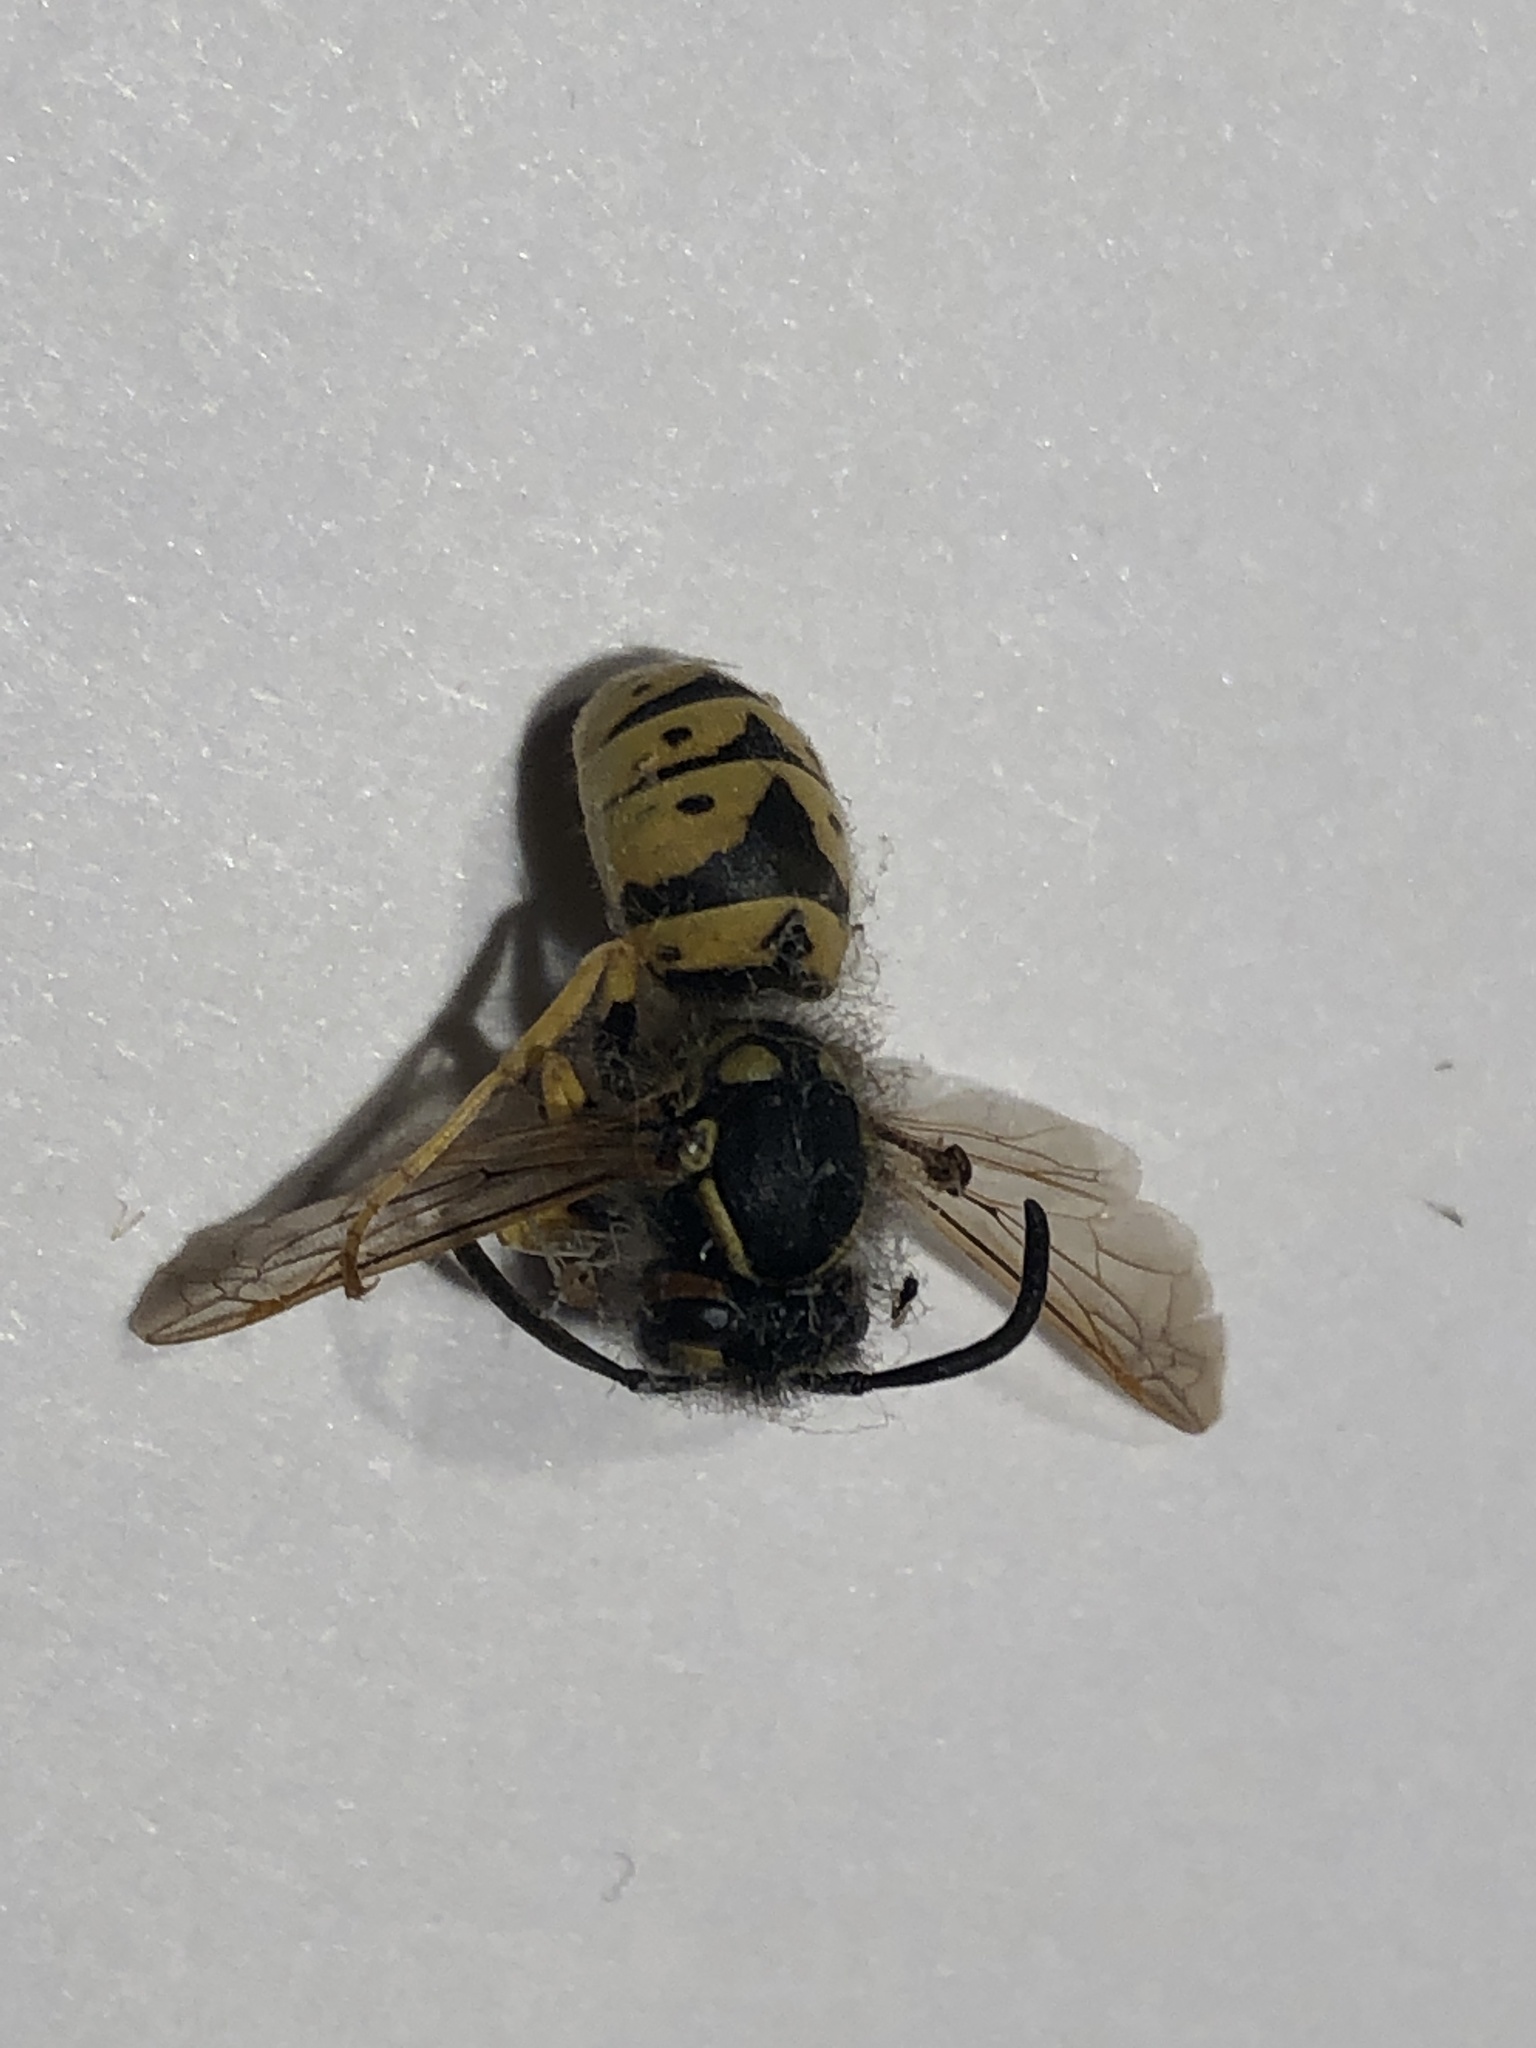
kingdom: Animalia
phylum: Arthropoda
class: Insecta
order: Hymenoptera
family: Vespidae
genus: Vespula
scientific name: Vespula germanica
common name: German wasp
